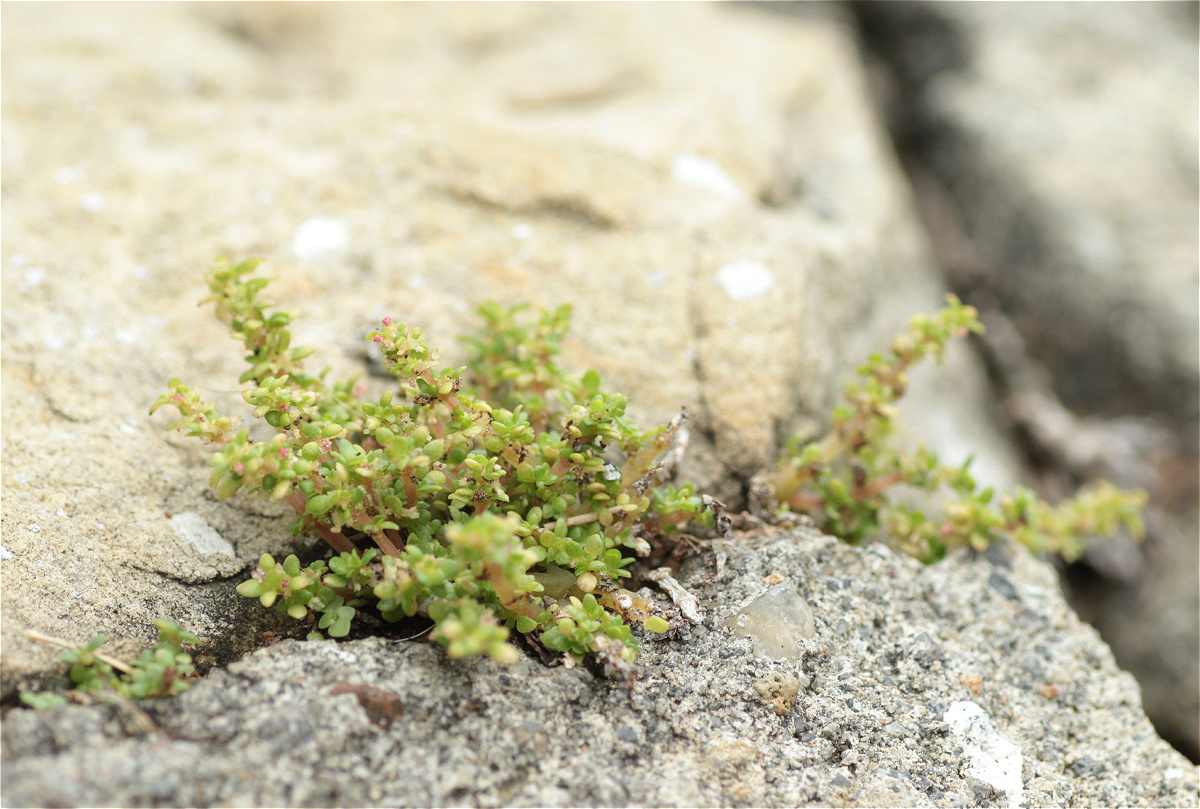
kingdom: Plantae
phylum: Tracheophyta
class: Magnoliopsida
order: Rosales
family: Urticaceae
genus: Pilea
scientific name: Pilea microphylla
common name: Artillery-plant
